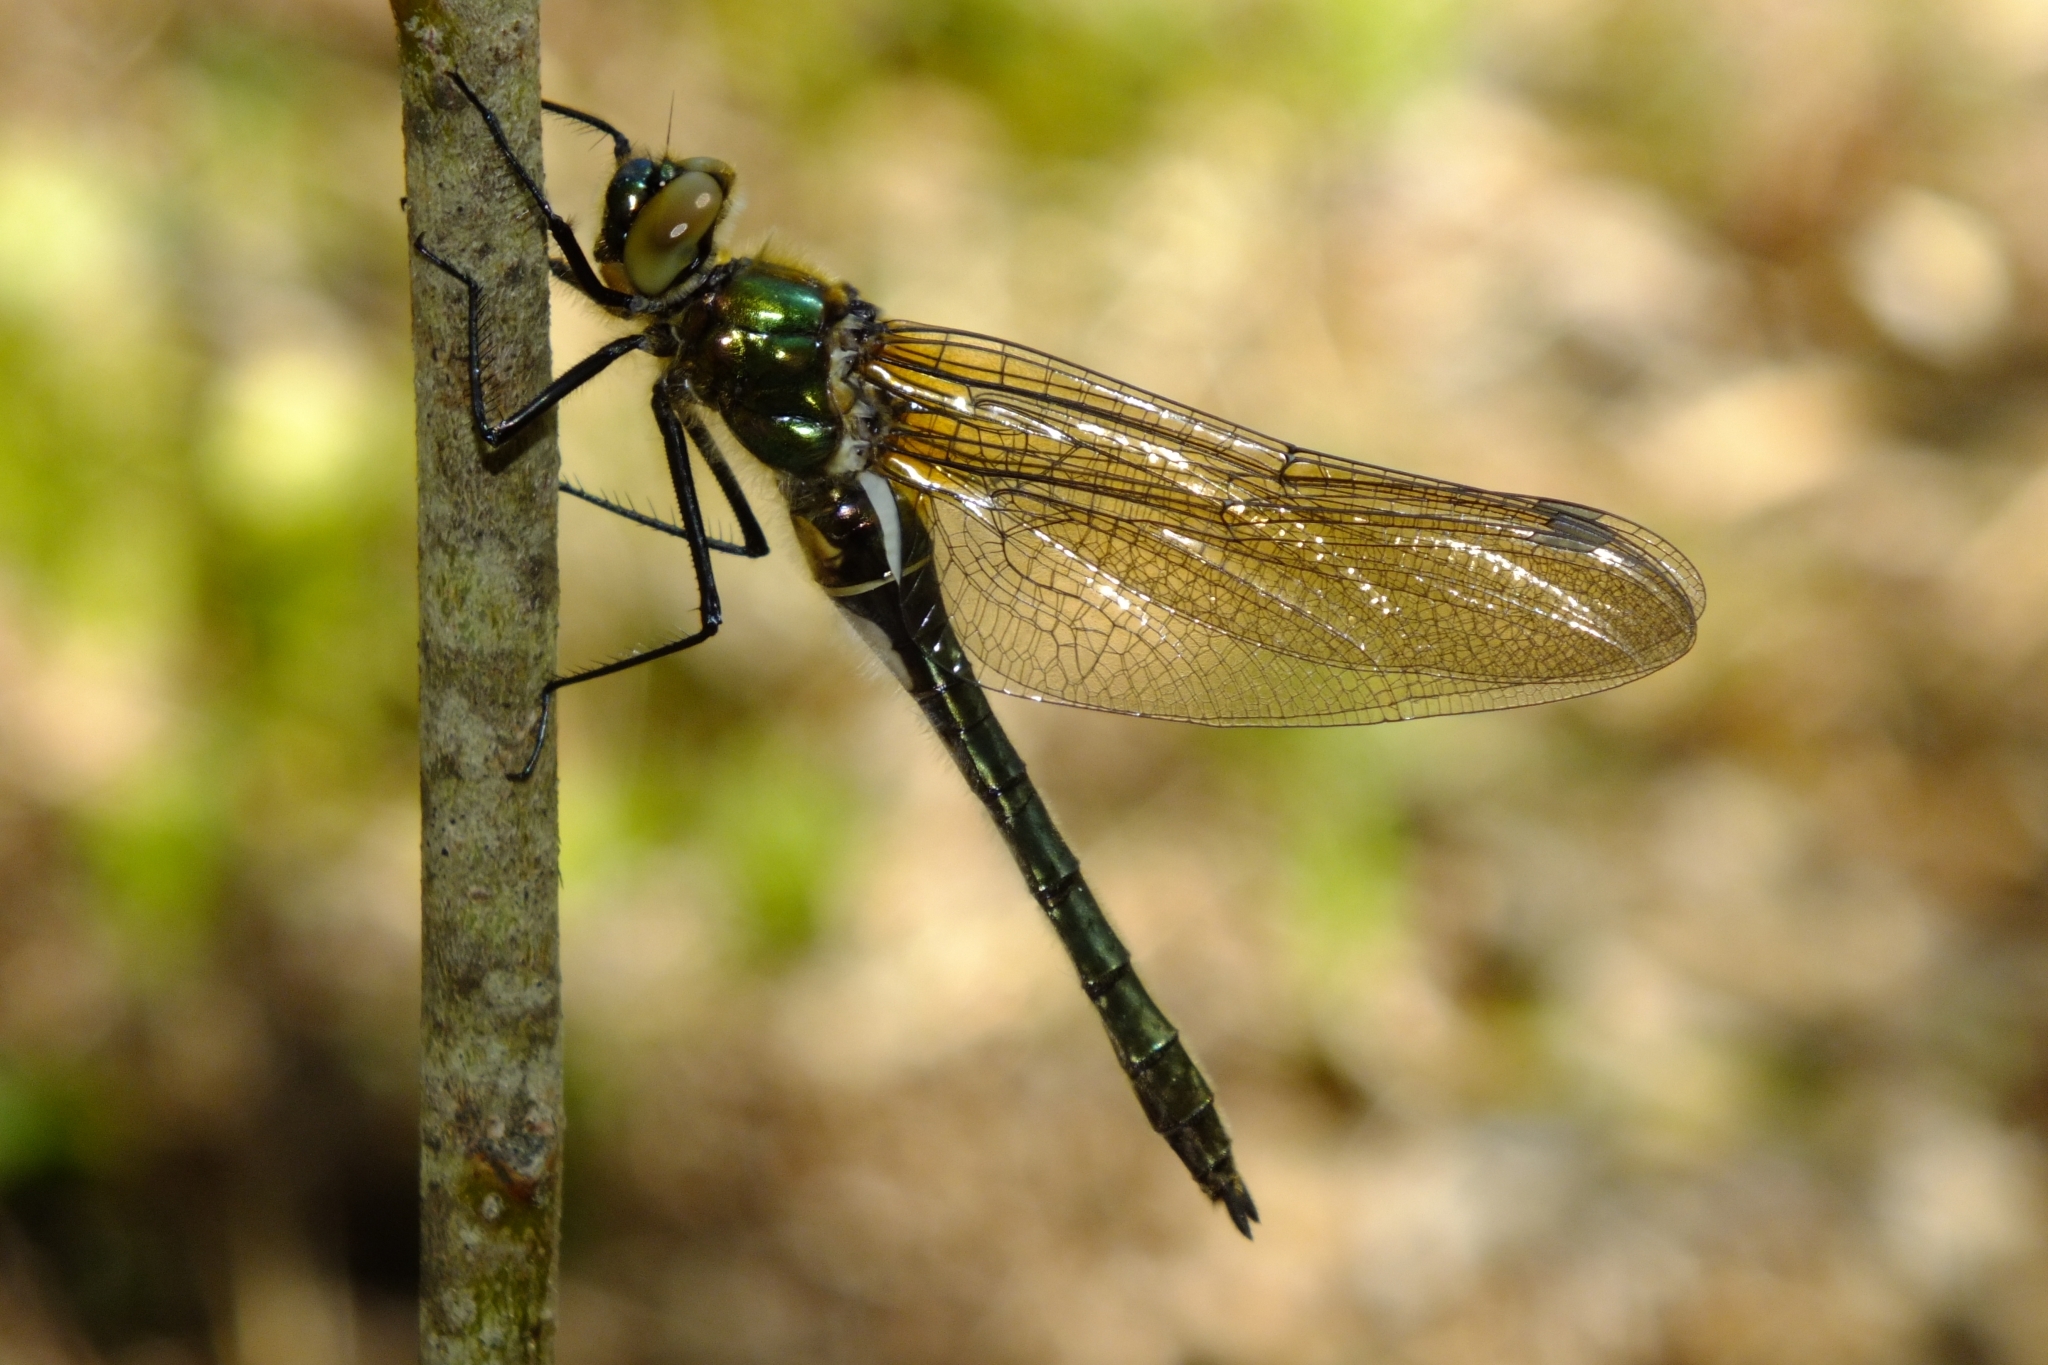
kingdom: Animalia
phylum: Arthropoda
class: Insecta
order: Odonata
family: Corduliidae
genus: Cordulia
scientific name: Cordulia aenea
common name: Downy emerald
